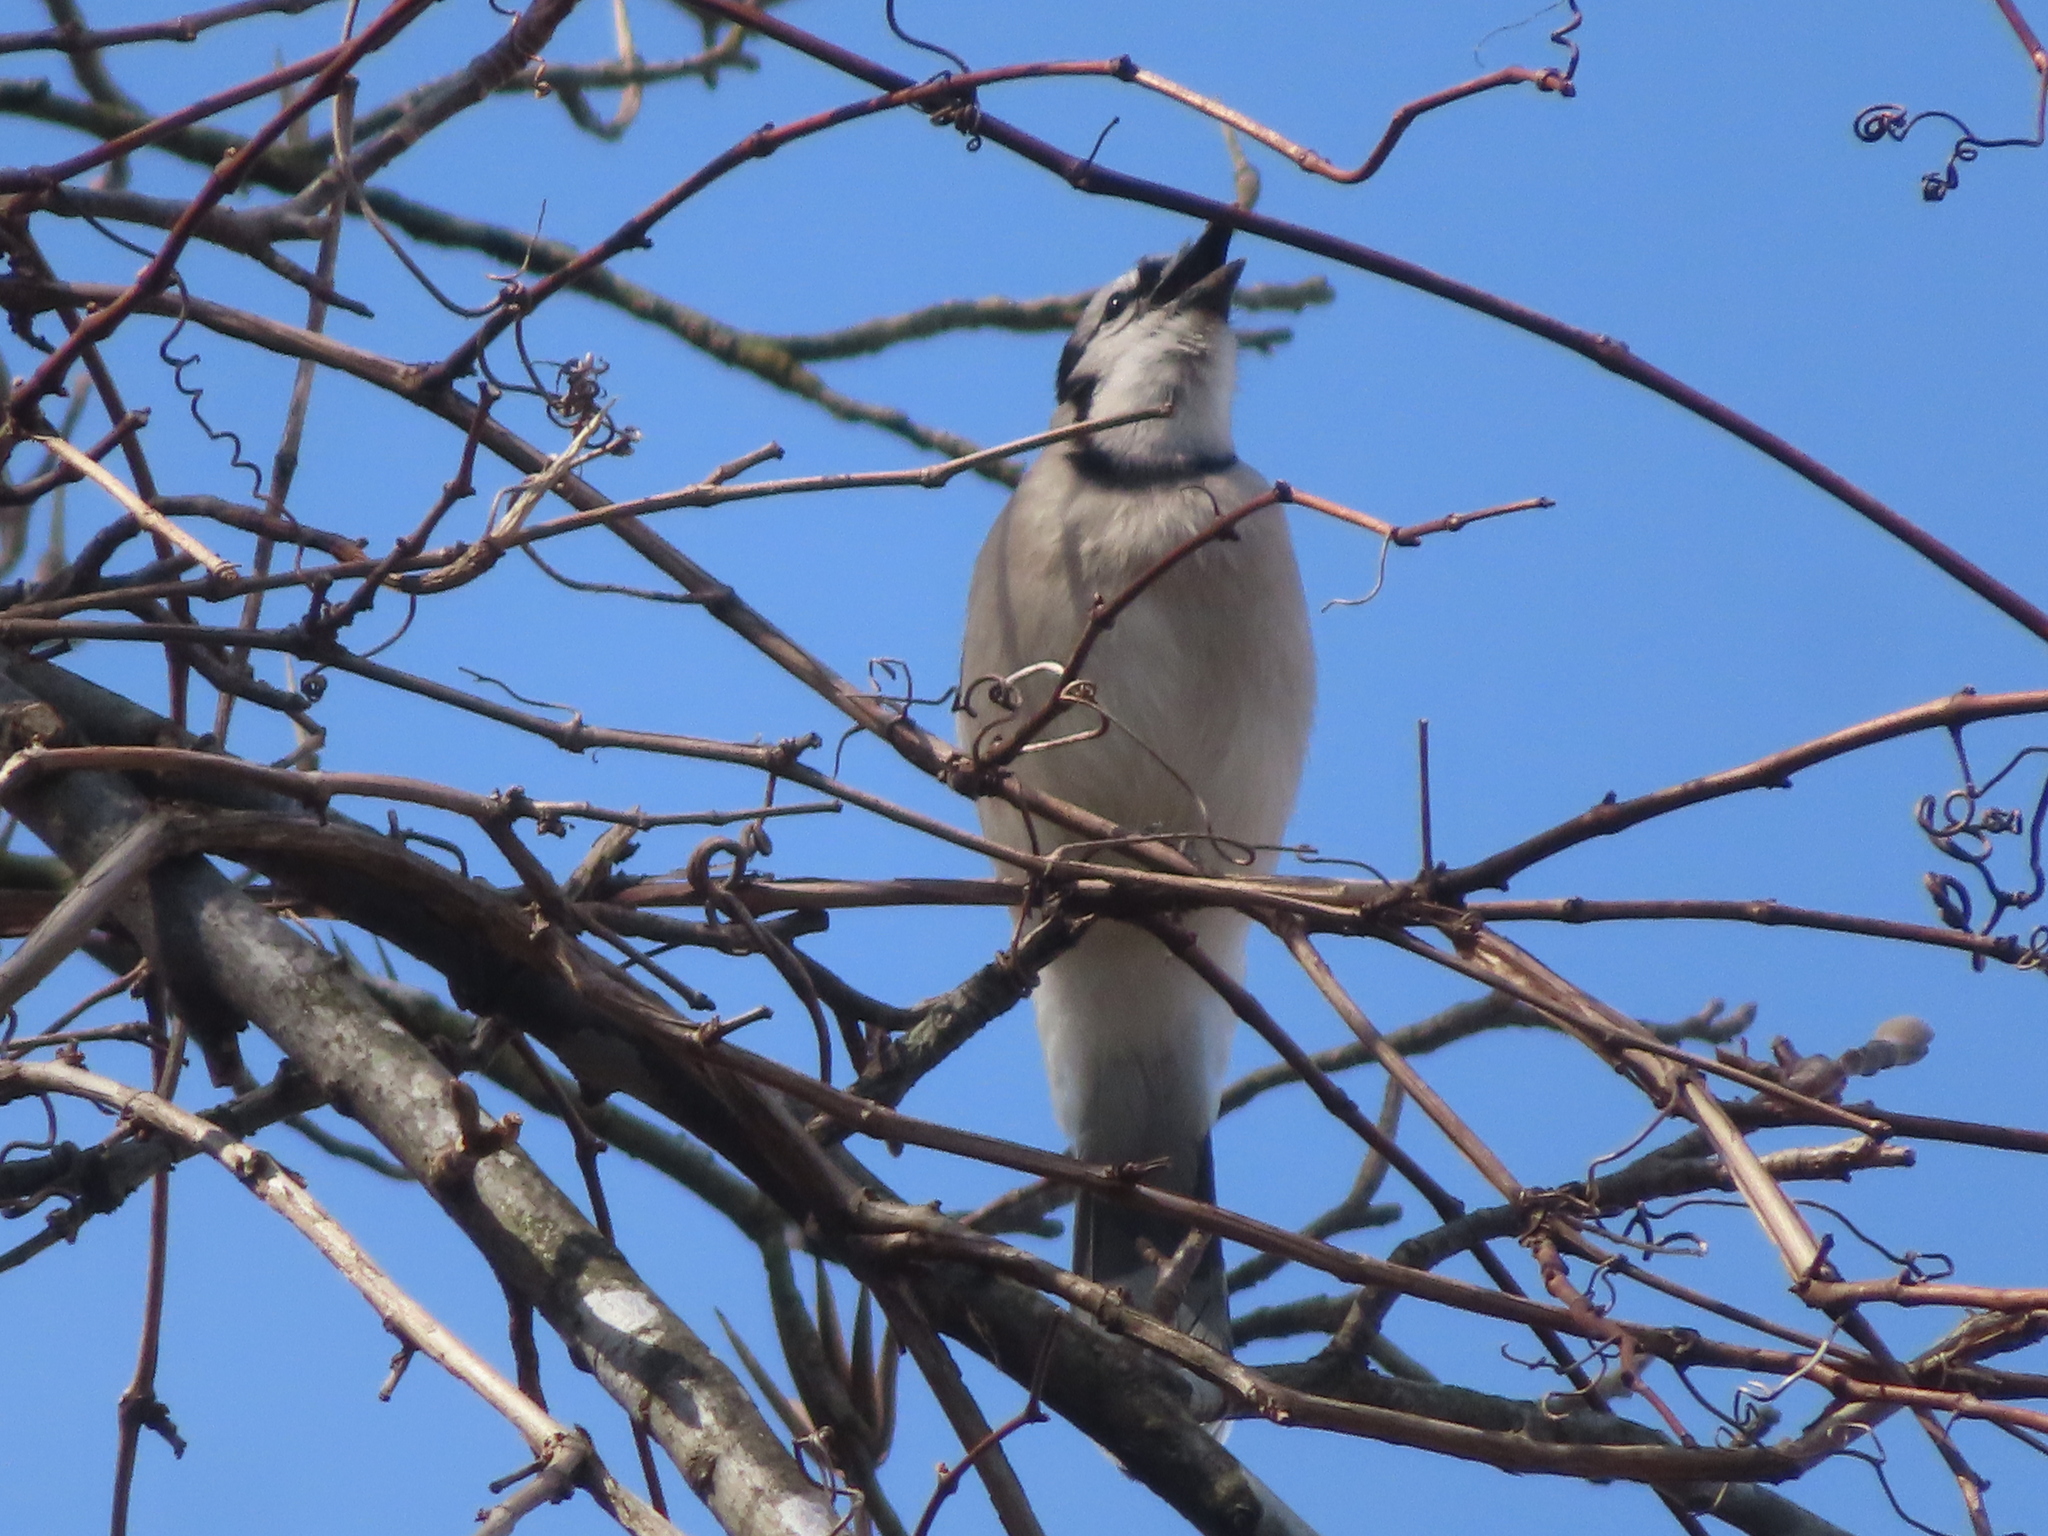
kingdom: Animalia
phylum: Chordata
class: Aves
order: Passeriformes
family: Corvidae
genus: Cyanocitta
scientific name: Cyanocitta cristata
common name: Blue jay
